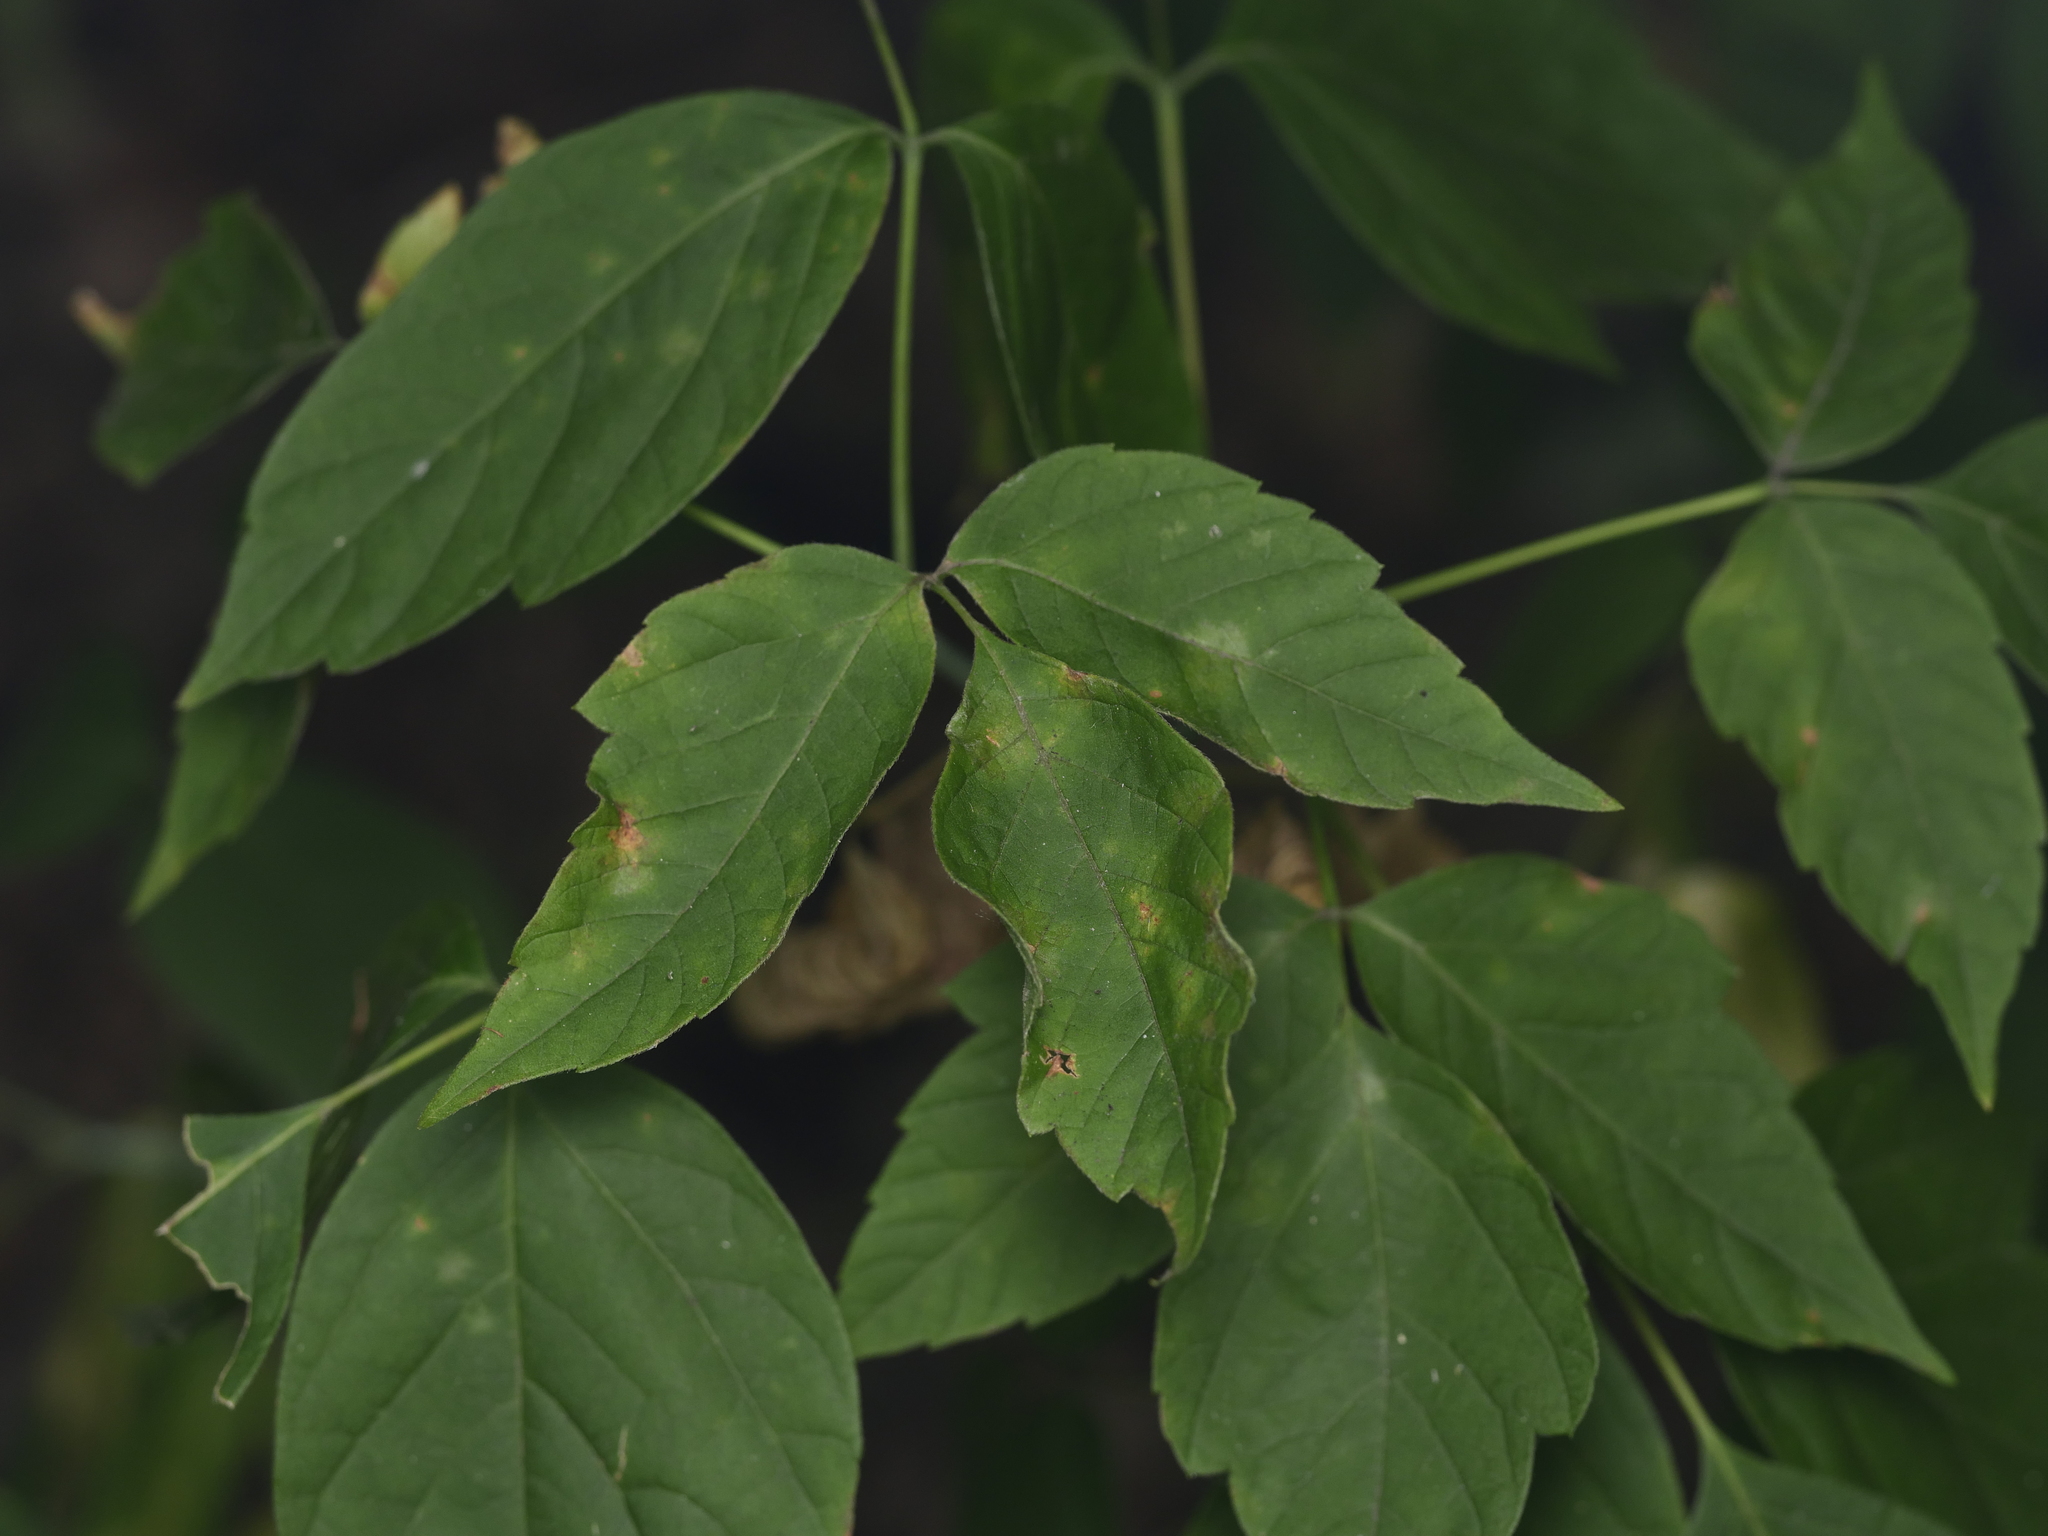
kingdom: Plantae
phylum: Tracheophyta
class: Magnoliopsida
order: Sapindales
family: Sapindaceae
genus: Acer
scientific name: Acer negundo
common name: Ashleaf maple
